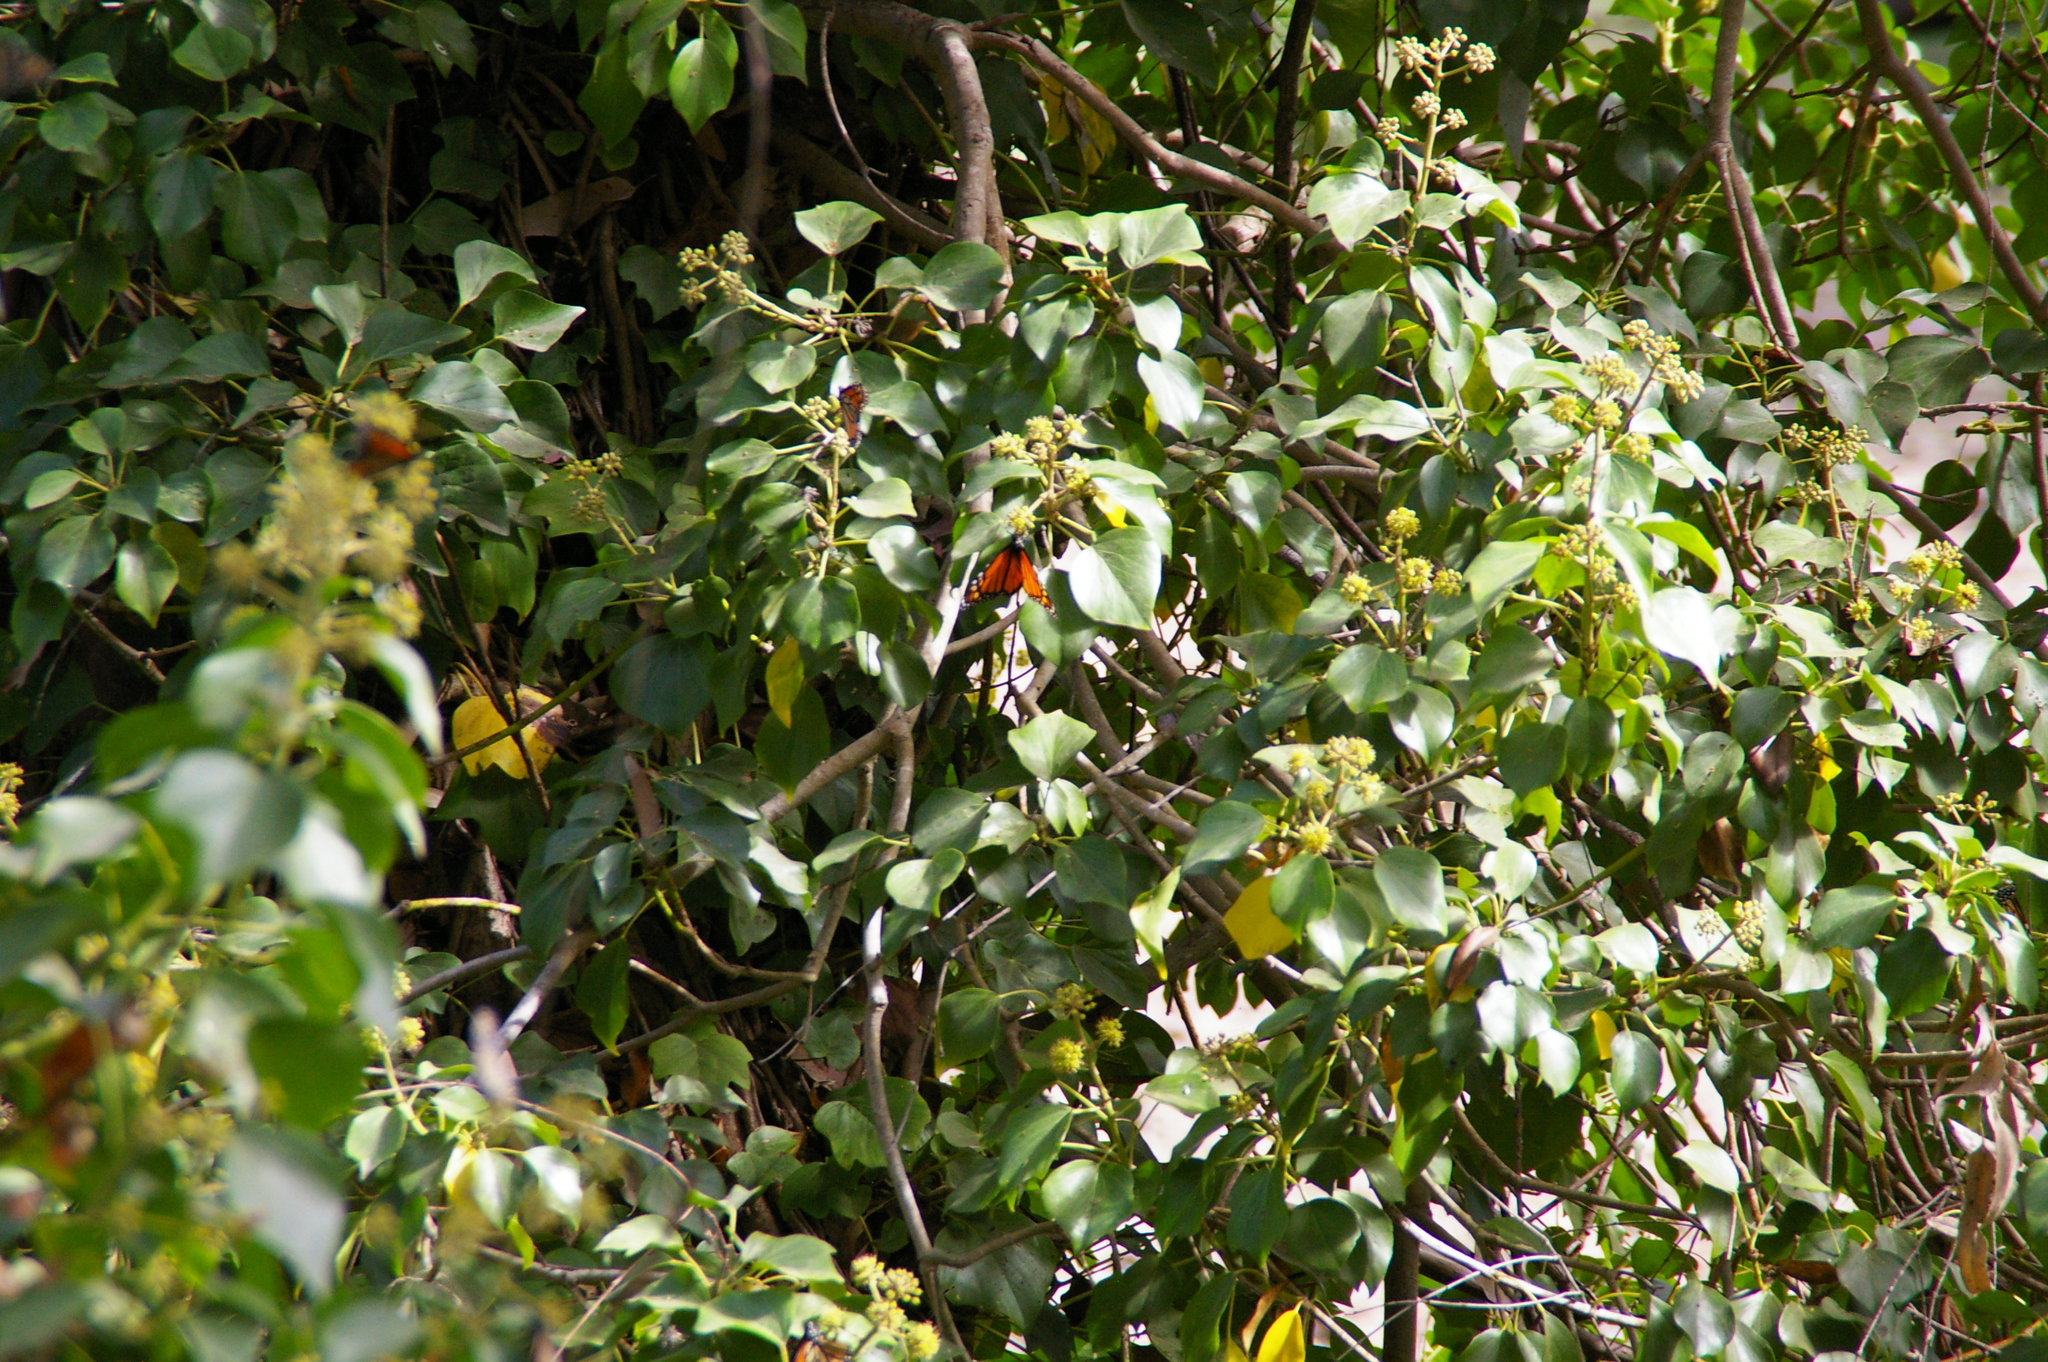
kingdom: Animalia
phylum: Arthropoda
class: Insecta
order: Lepidoptera
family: Nymphalidae
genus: Danaus
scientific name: Danaus plexippus
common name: Monarch
